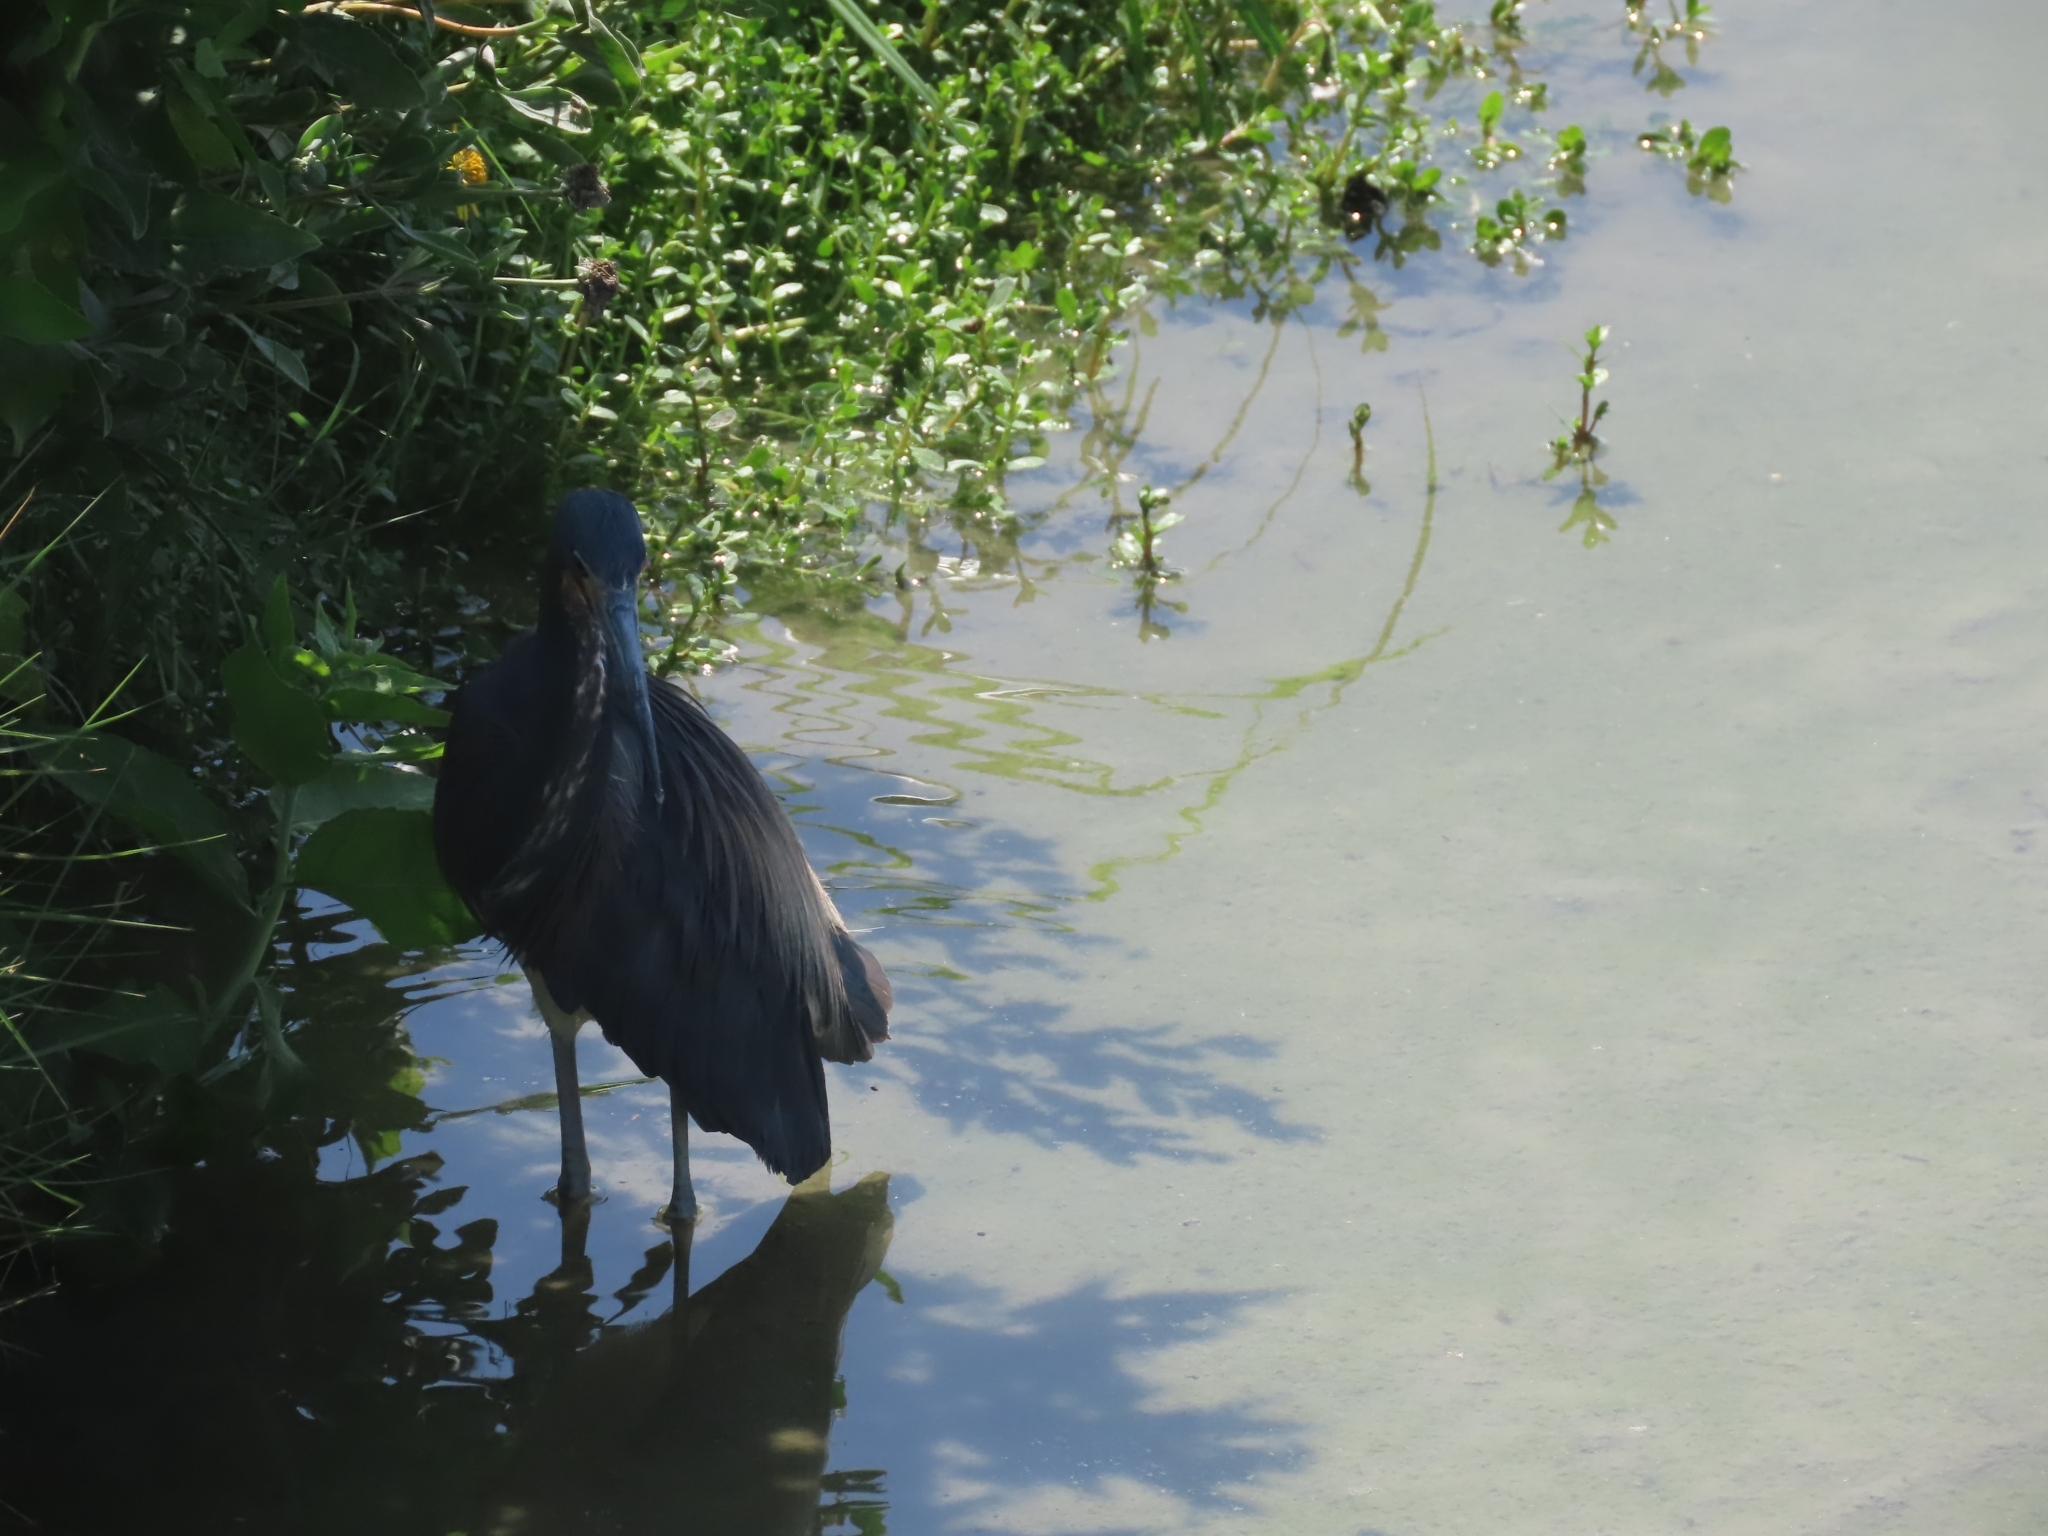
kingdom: Animalia
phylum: Chordata
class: Aves
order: Pelecaniformes
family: Ardeidae
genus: Egretta
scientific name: Egretta tricolor
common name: Tricolored heron
